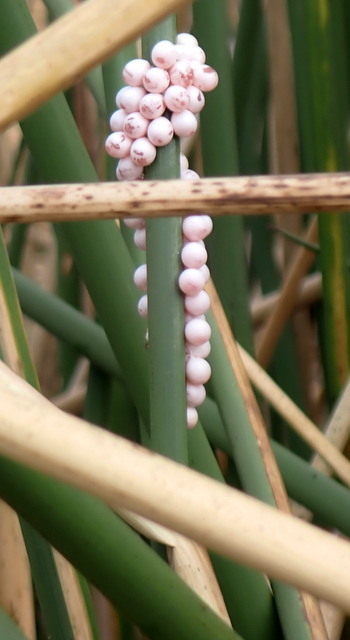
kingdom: Animalia
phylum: Mollusca
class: Gastropoda
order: Architaenioglossa
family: Ampullariidae
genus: Pomacea
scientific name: Pomacea paludosa
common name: Florida applesnail
